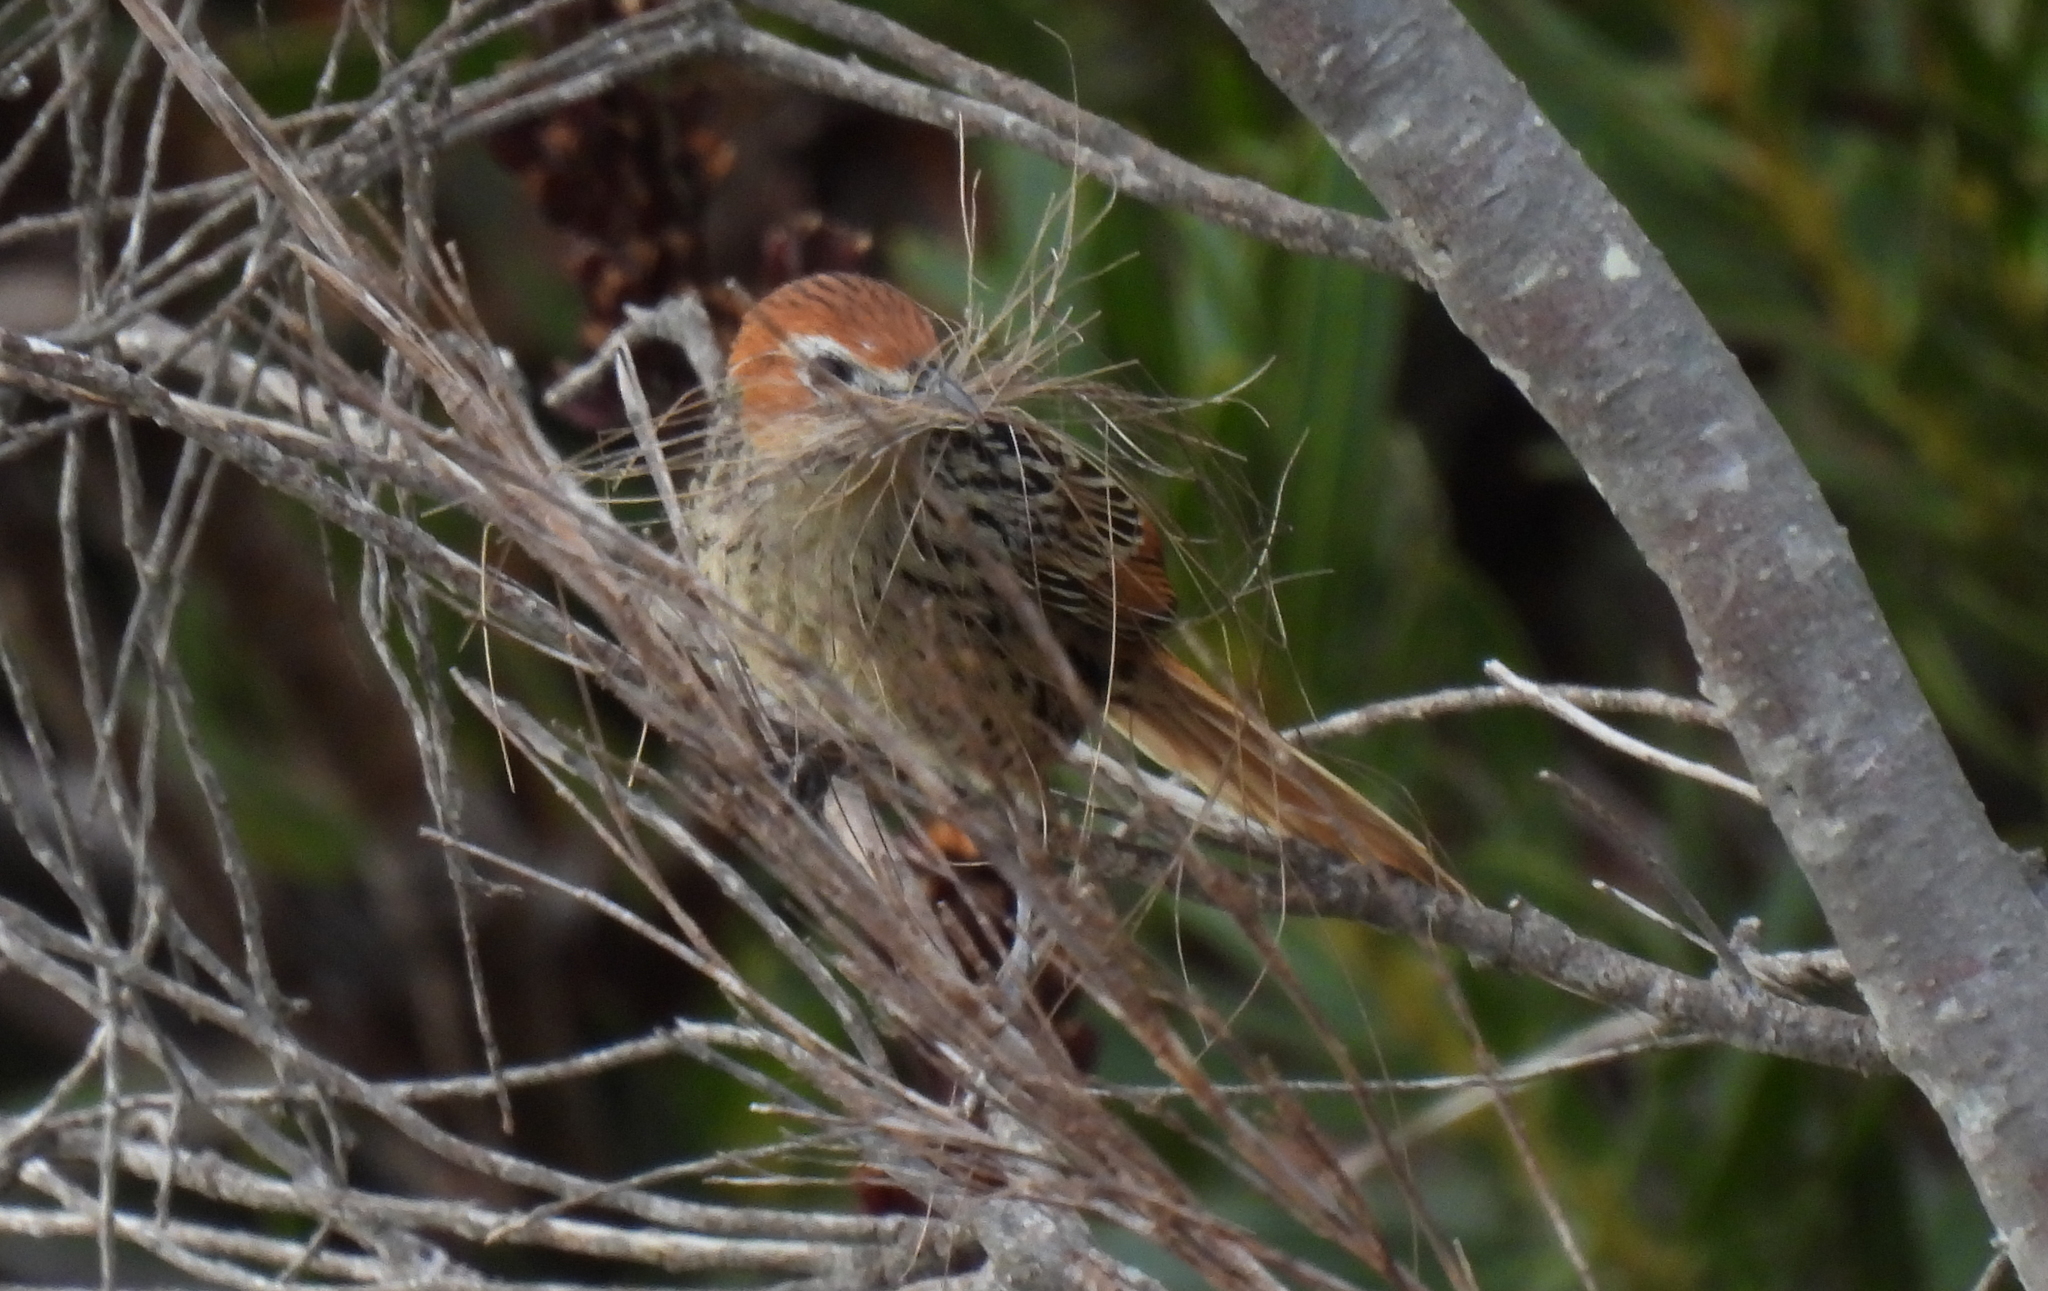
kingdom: Animalia
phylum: Chordata
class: Aves
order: Passeriformes
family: Macrosphenidae
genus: Sphenoeacus
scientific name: Sphenoeacus afer
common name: Cape grassbird
